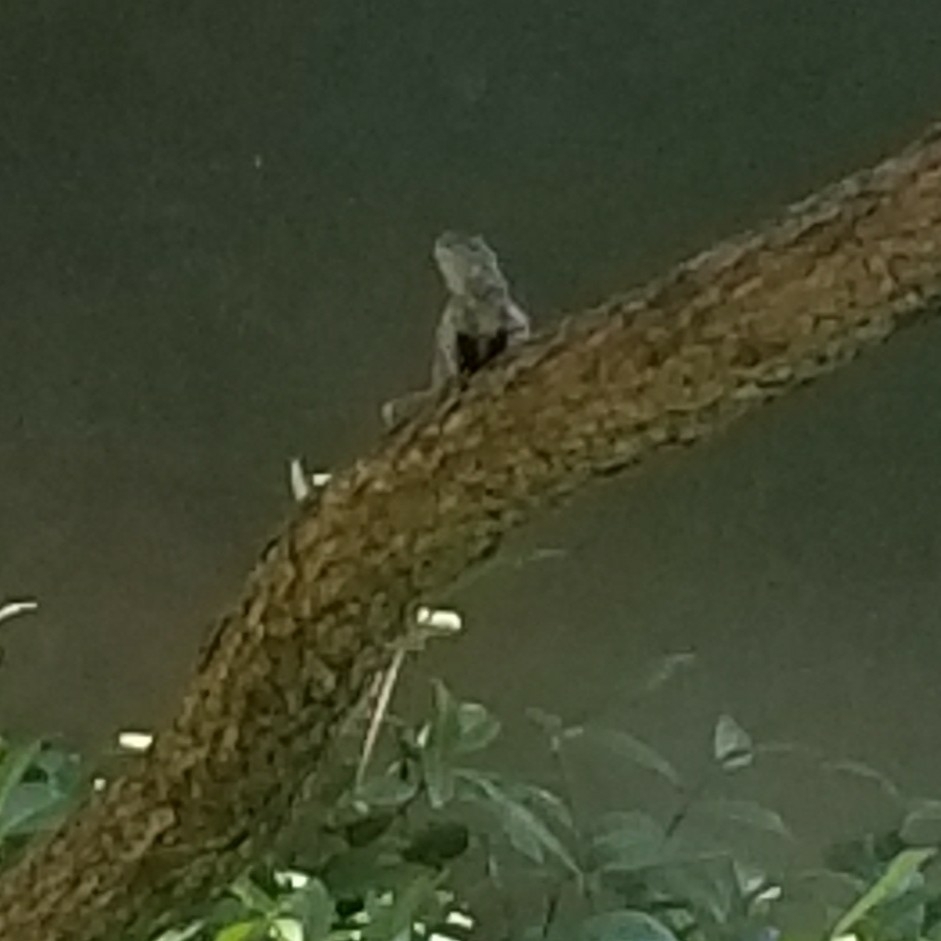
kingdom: Animalia
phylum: Chordata
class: Squamata
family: Phrynosomatidae
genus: Sceloporus
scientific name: Sceloporus occidentalis
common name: Western fence lizard
